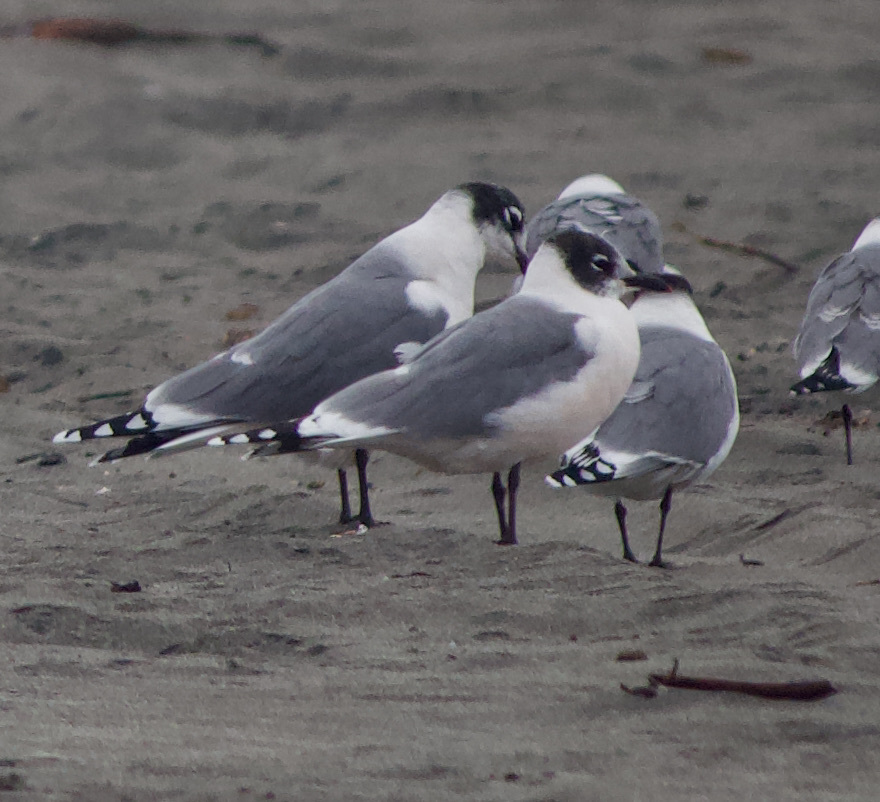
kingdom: Animalia
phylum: Chordata
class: Aves
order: Charadriiformes
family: Laridae
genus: Leucophaeus
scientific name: Leucophaeus pipixcan
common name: Franklin's gull
